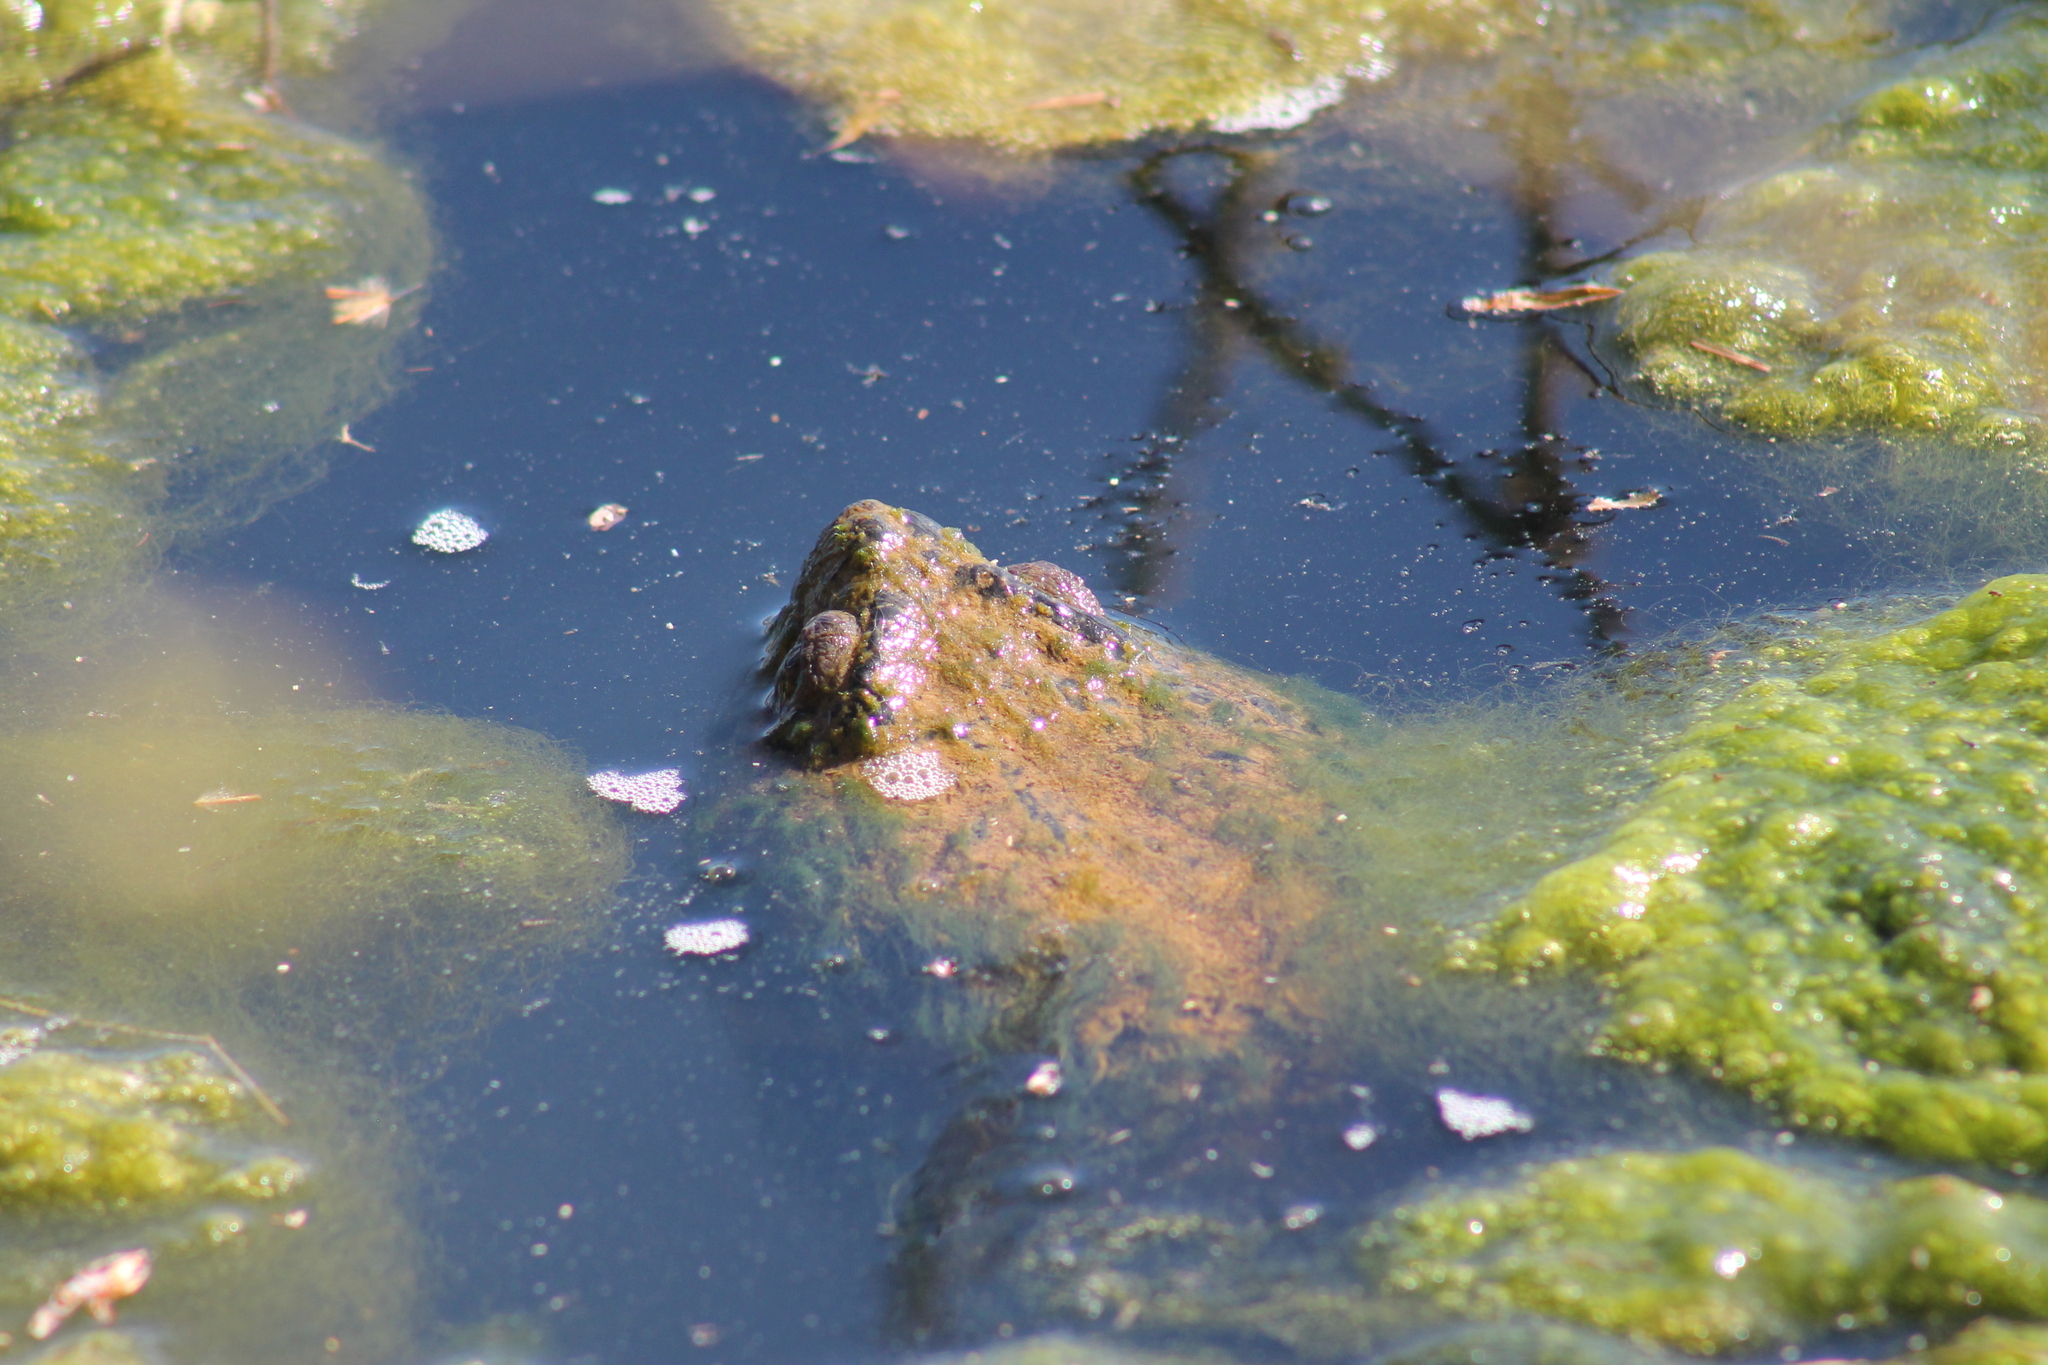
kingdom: Animalia
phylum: Chordata
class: Testudines
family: Chelydridae
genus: Chelydra
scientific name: Chelydra serpentina
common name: Common snapping turtle
